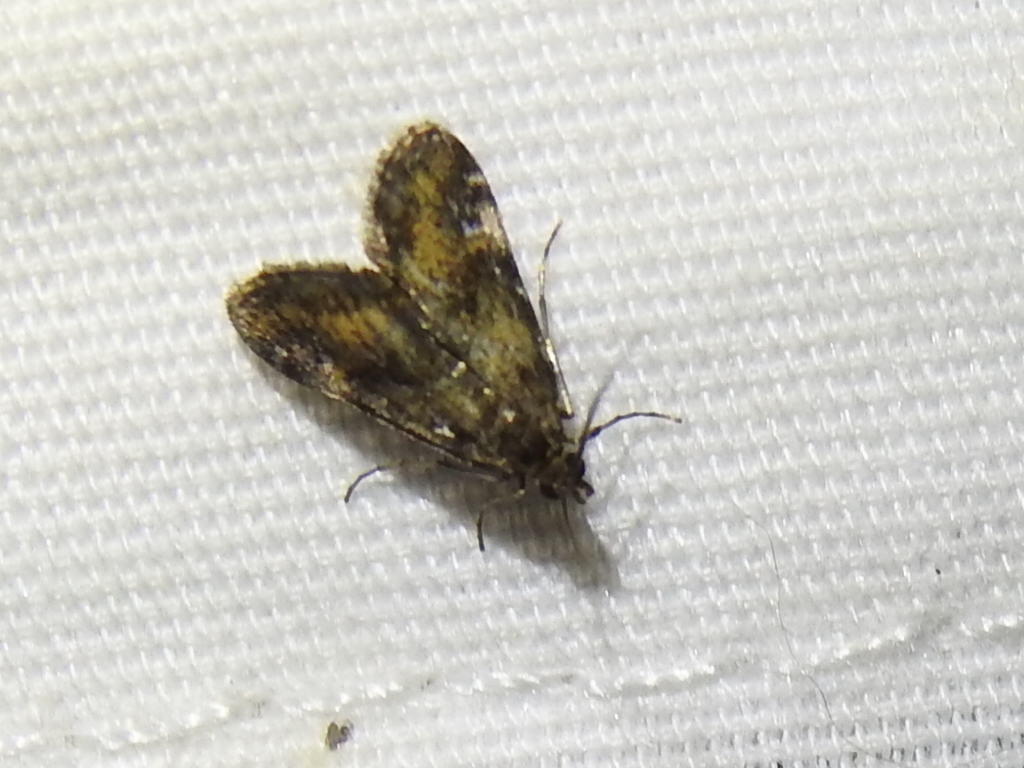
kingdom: Animalia
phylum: Arthropoda
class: Insecta
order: Lepidoptera
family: Crambidae
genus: Elophila
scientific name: Elophila obliteralis
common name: Waterlily leafcutter moth
